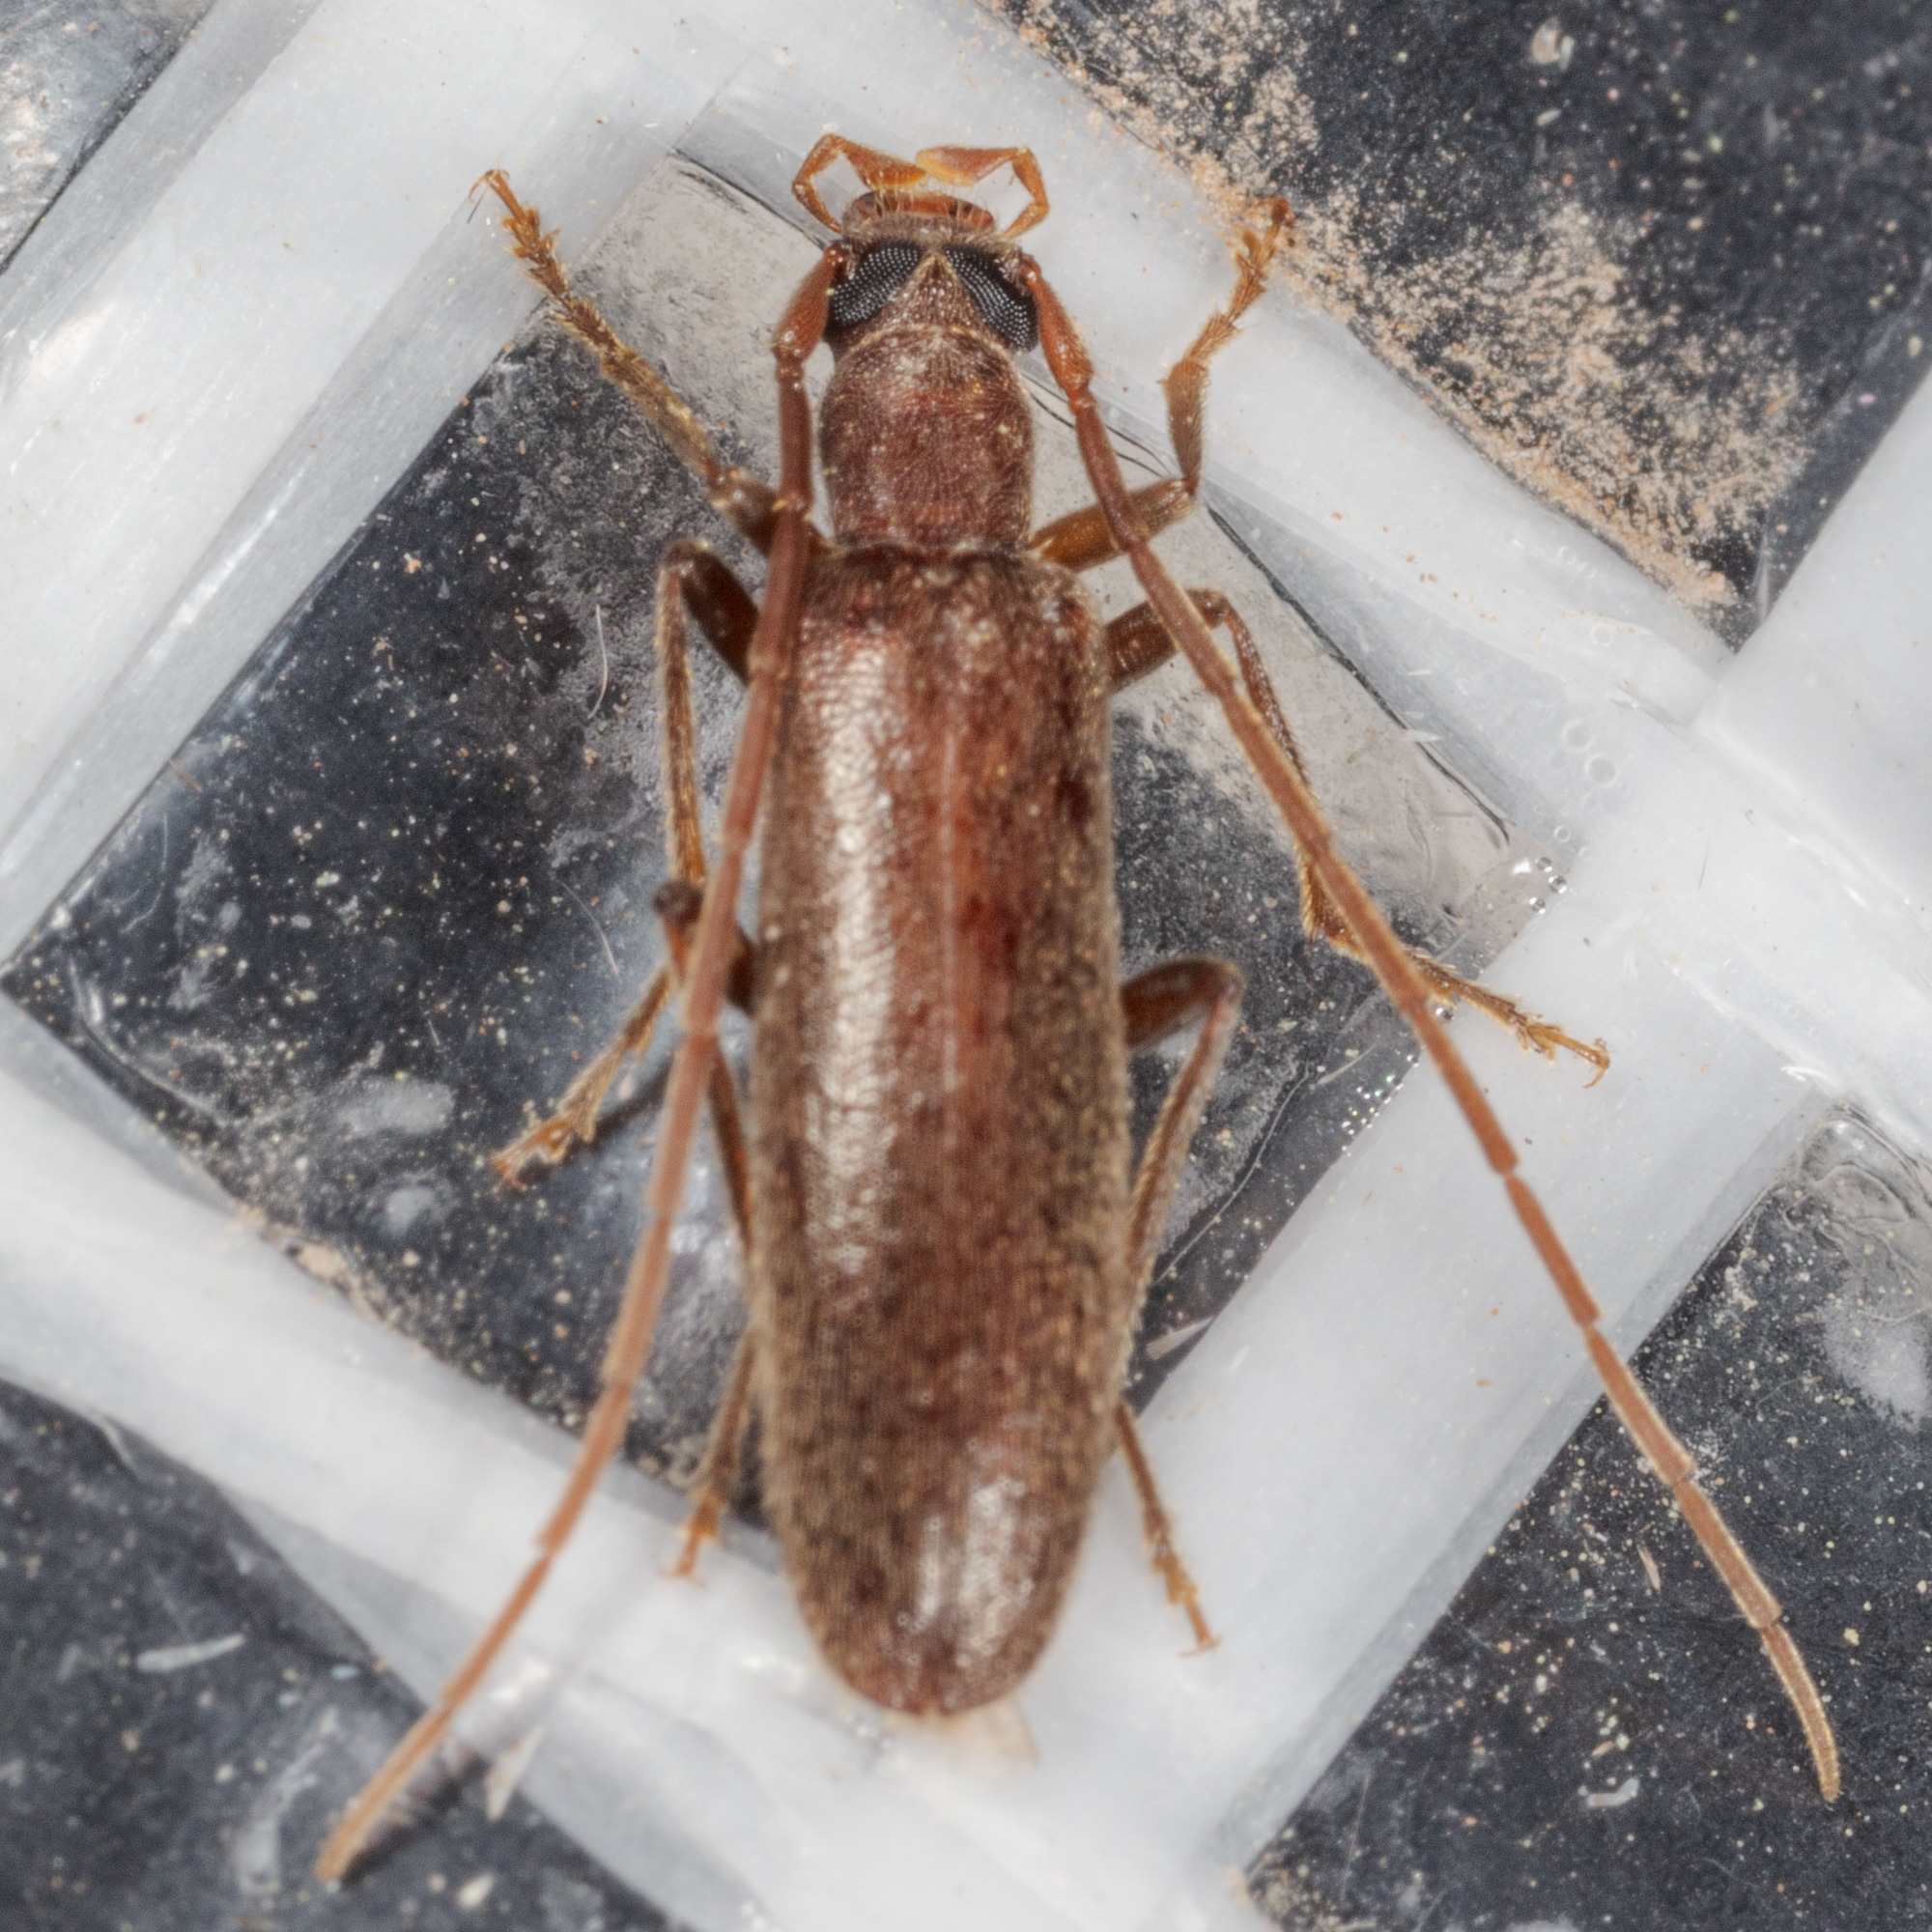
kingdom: Animalia
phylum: Arthropoda
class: Insecta
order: Coleoptera
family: Oedemeridae
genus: Sparedrus
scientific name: Sparedrus aspersus
